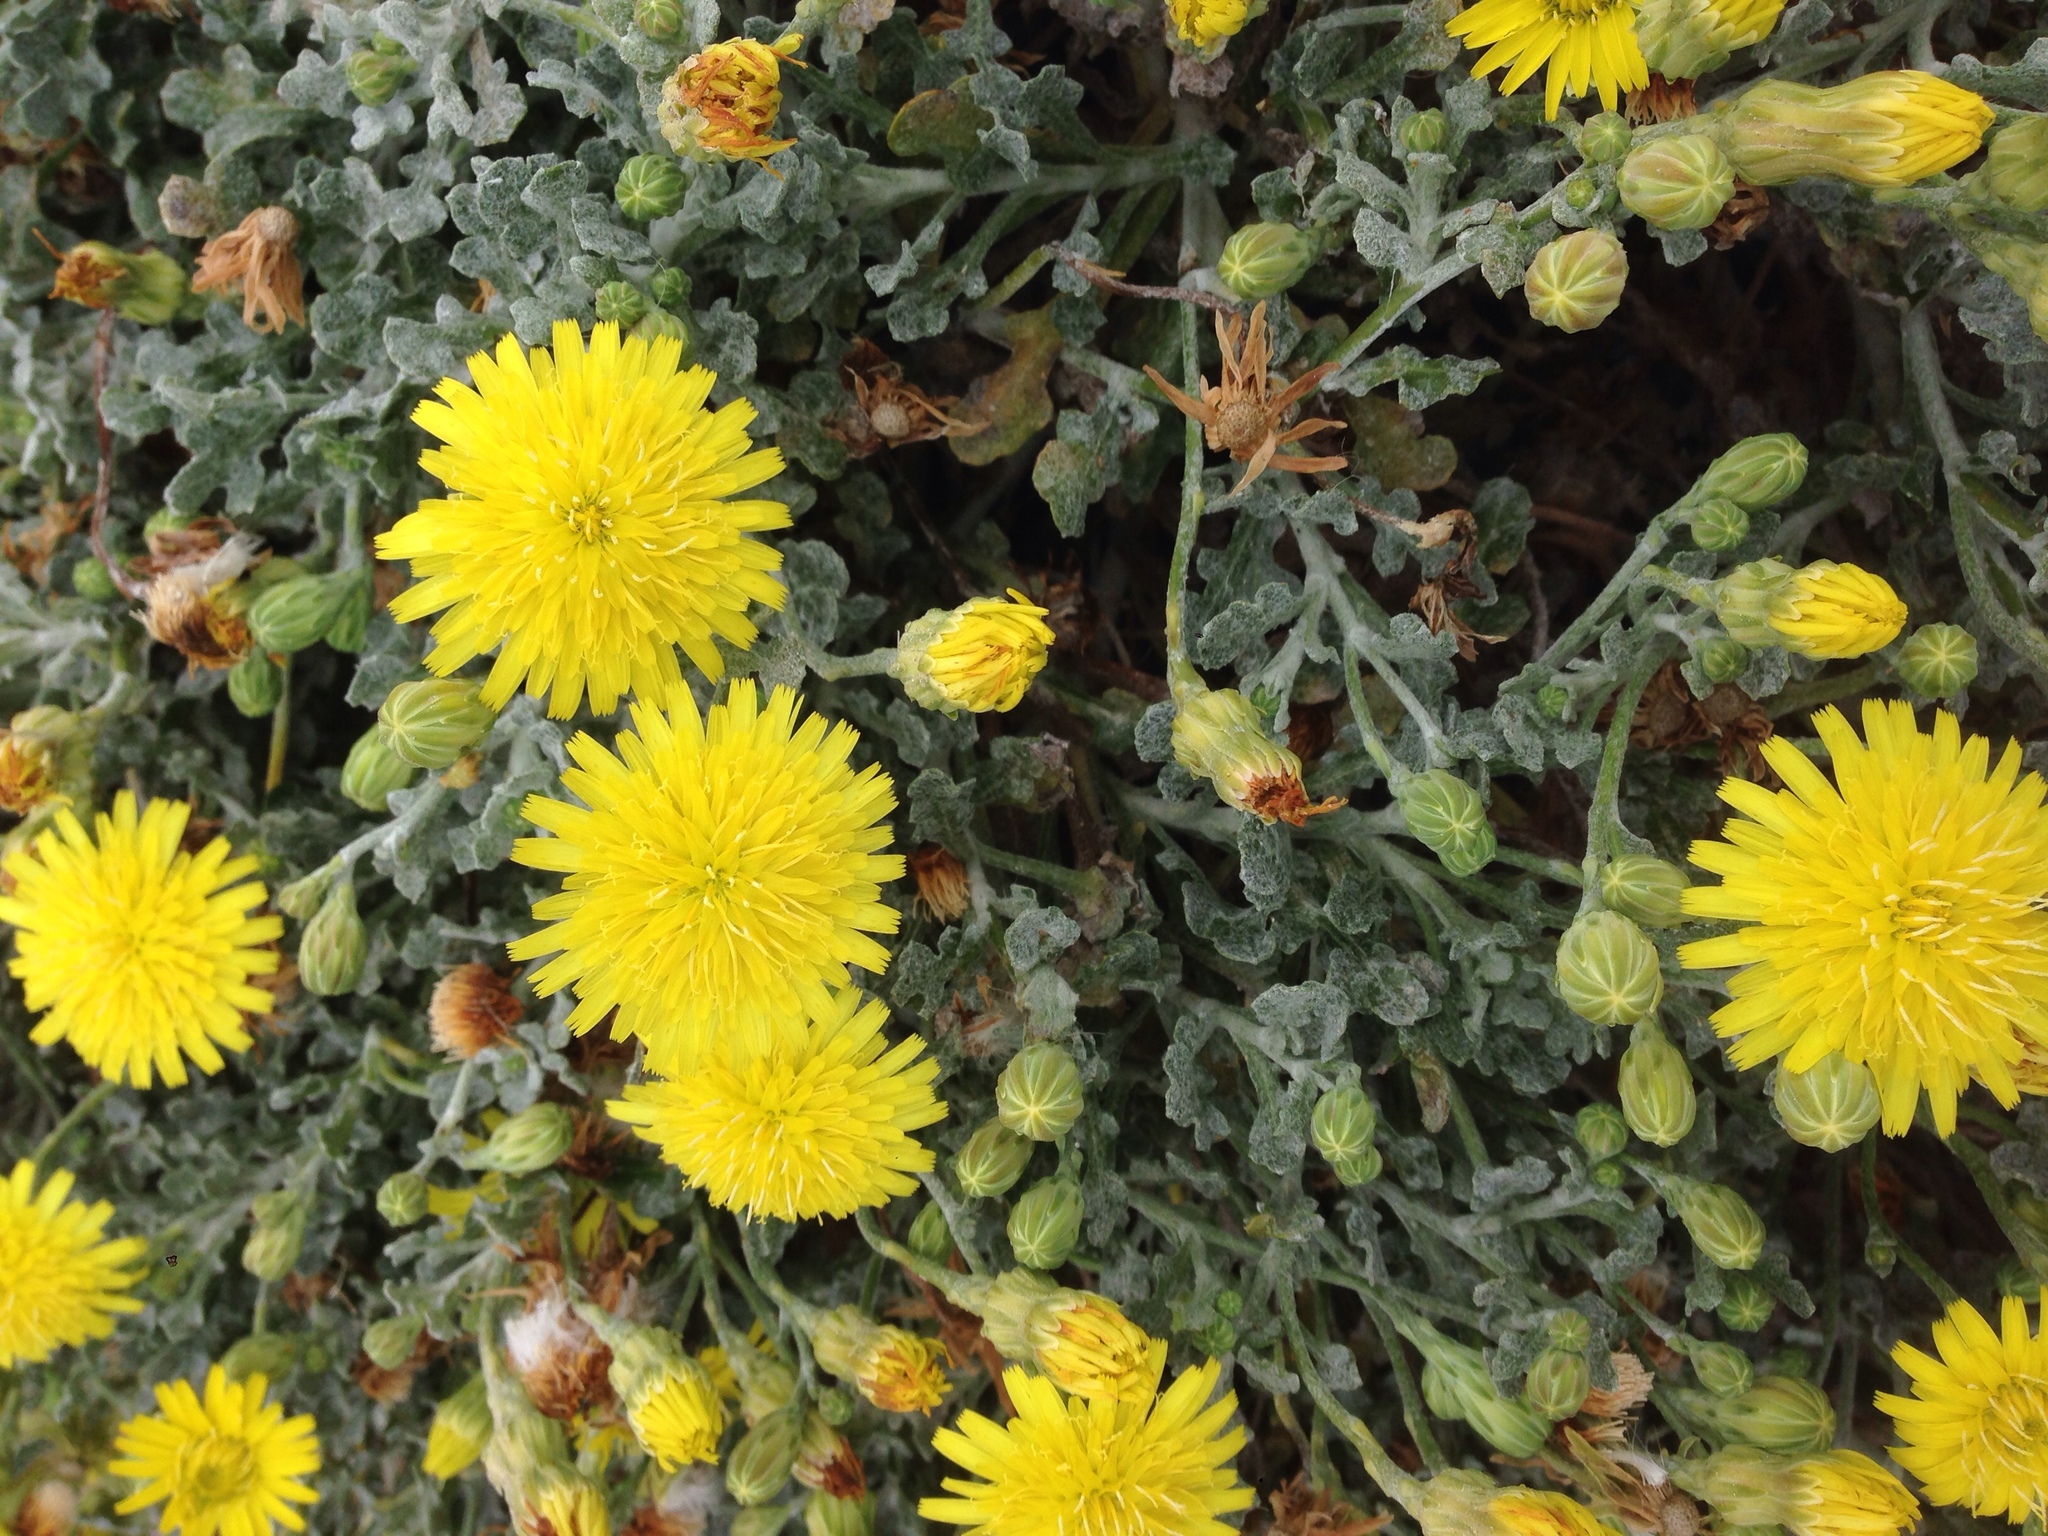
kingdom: Plantae
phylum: Tracheophyta
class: Magnoliopsida
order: Asterales
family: Asteraceae
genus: Malacothrix
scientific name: Malacothrix incana
